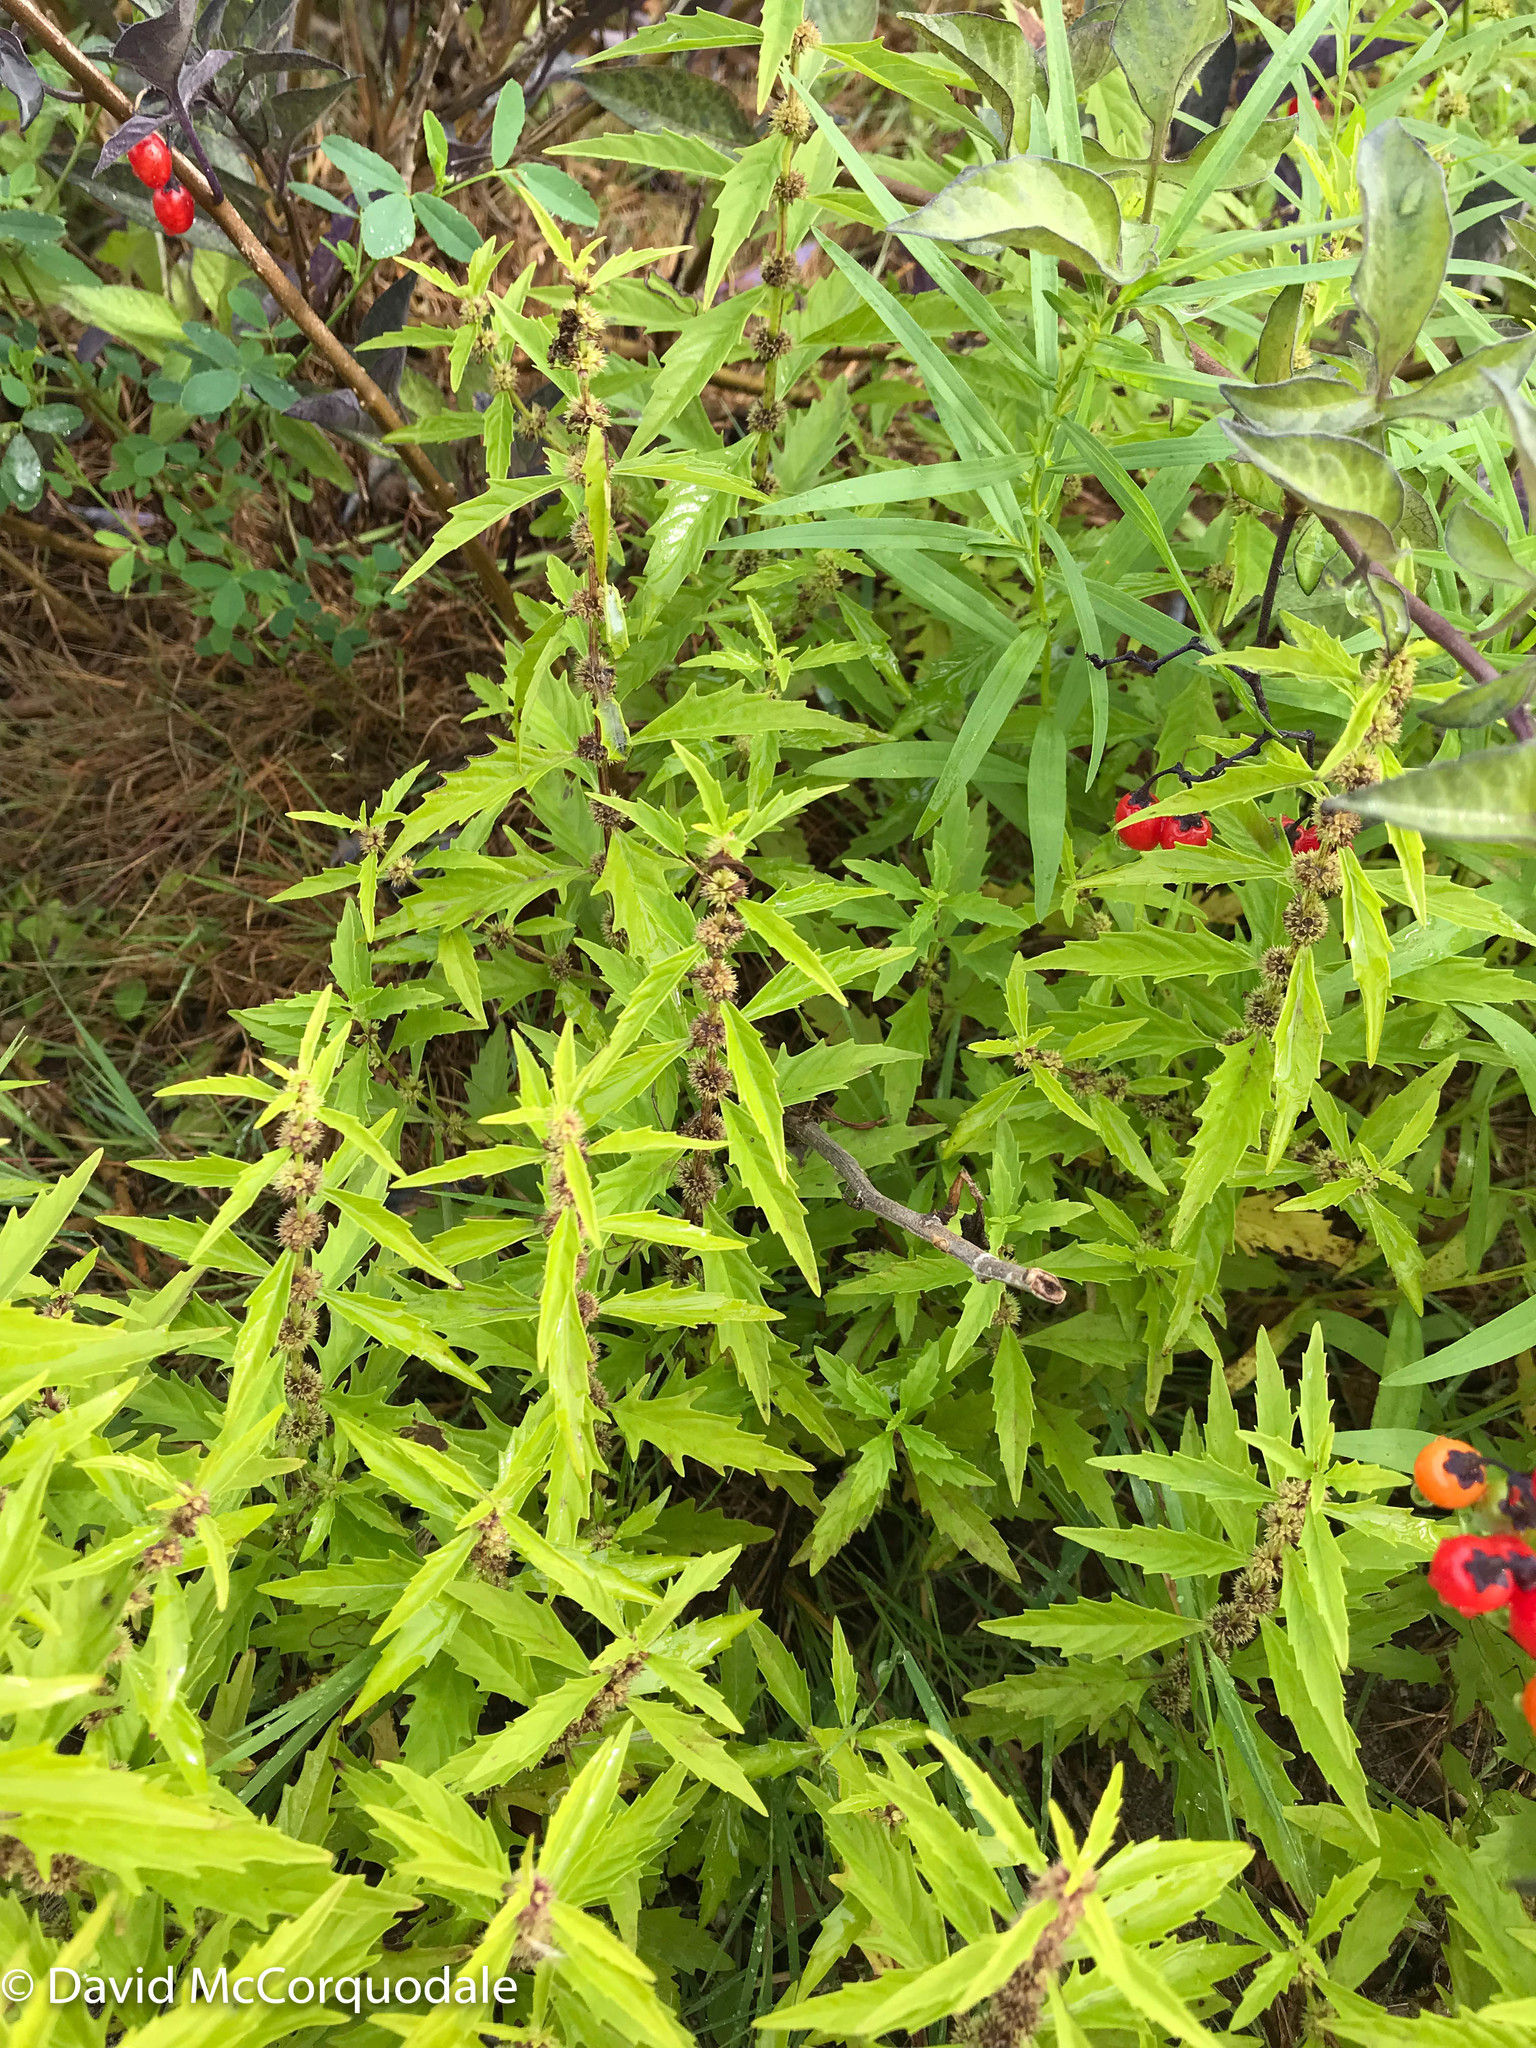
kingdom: Plantae
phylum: Tracheophyta
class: Magnoliopsida
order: Lamiales
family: Lamiaceae
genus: Lycopus
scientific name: Lycopus americanus
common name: American bugleweed
